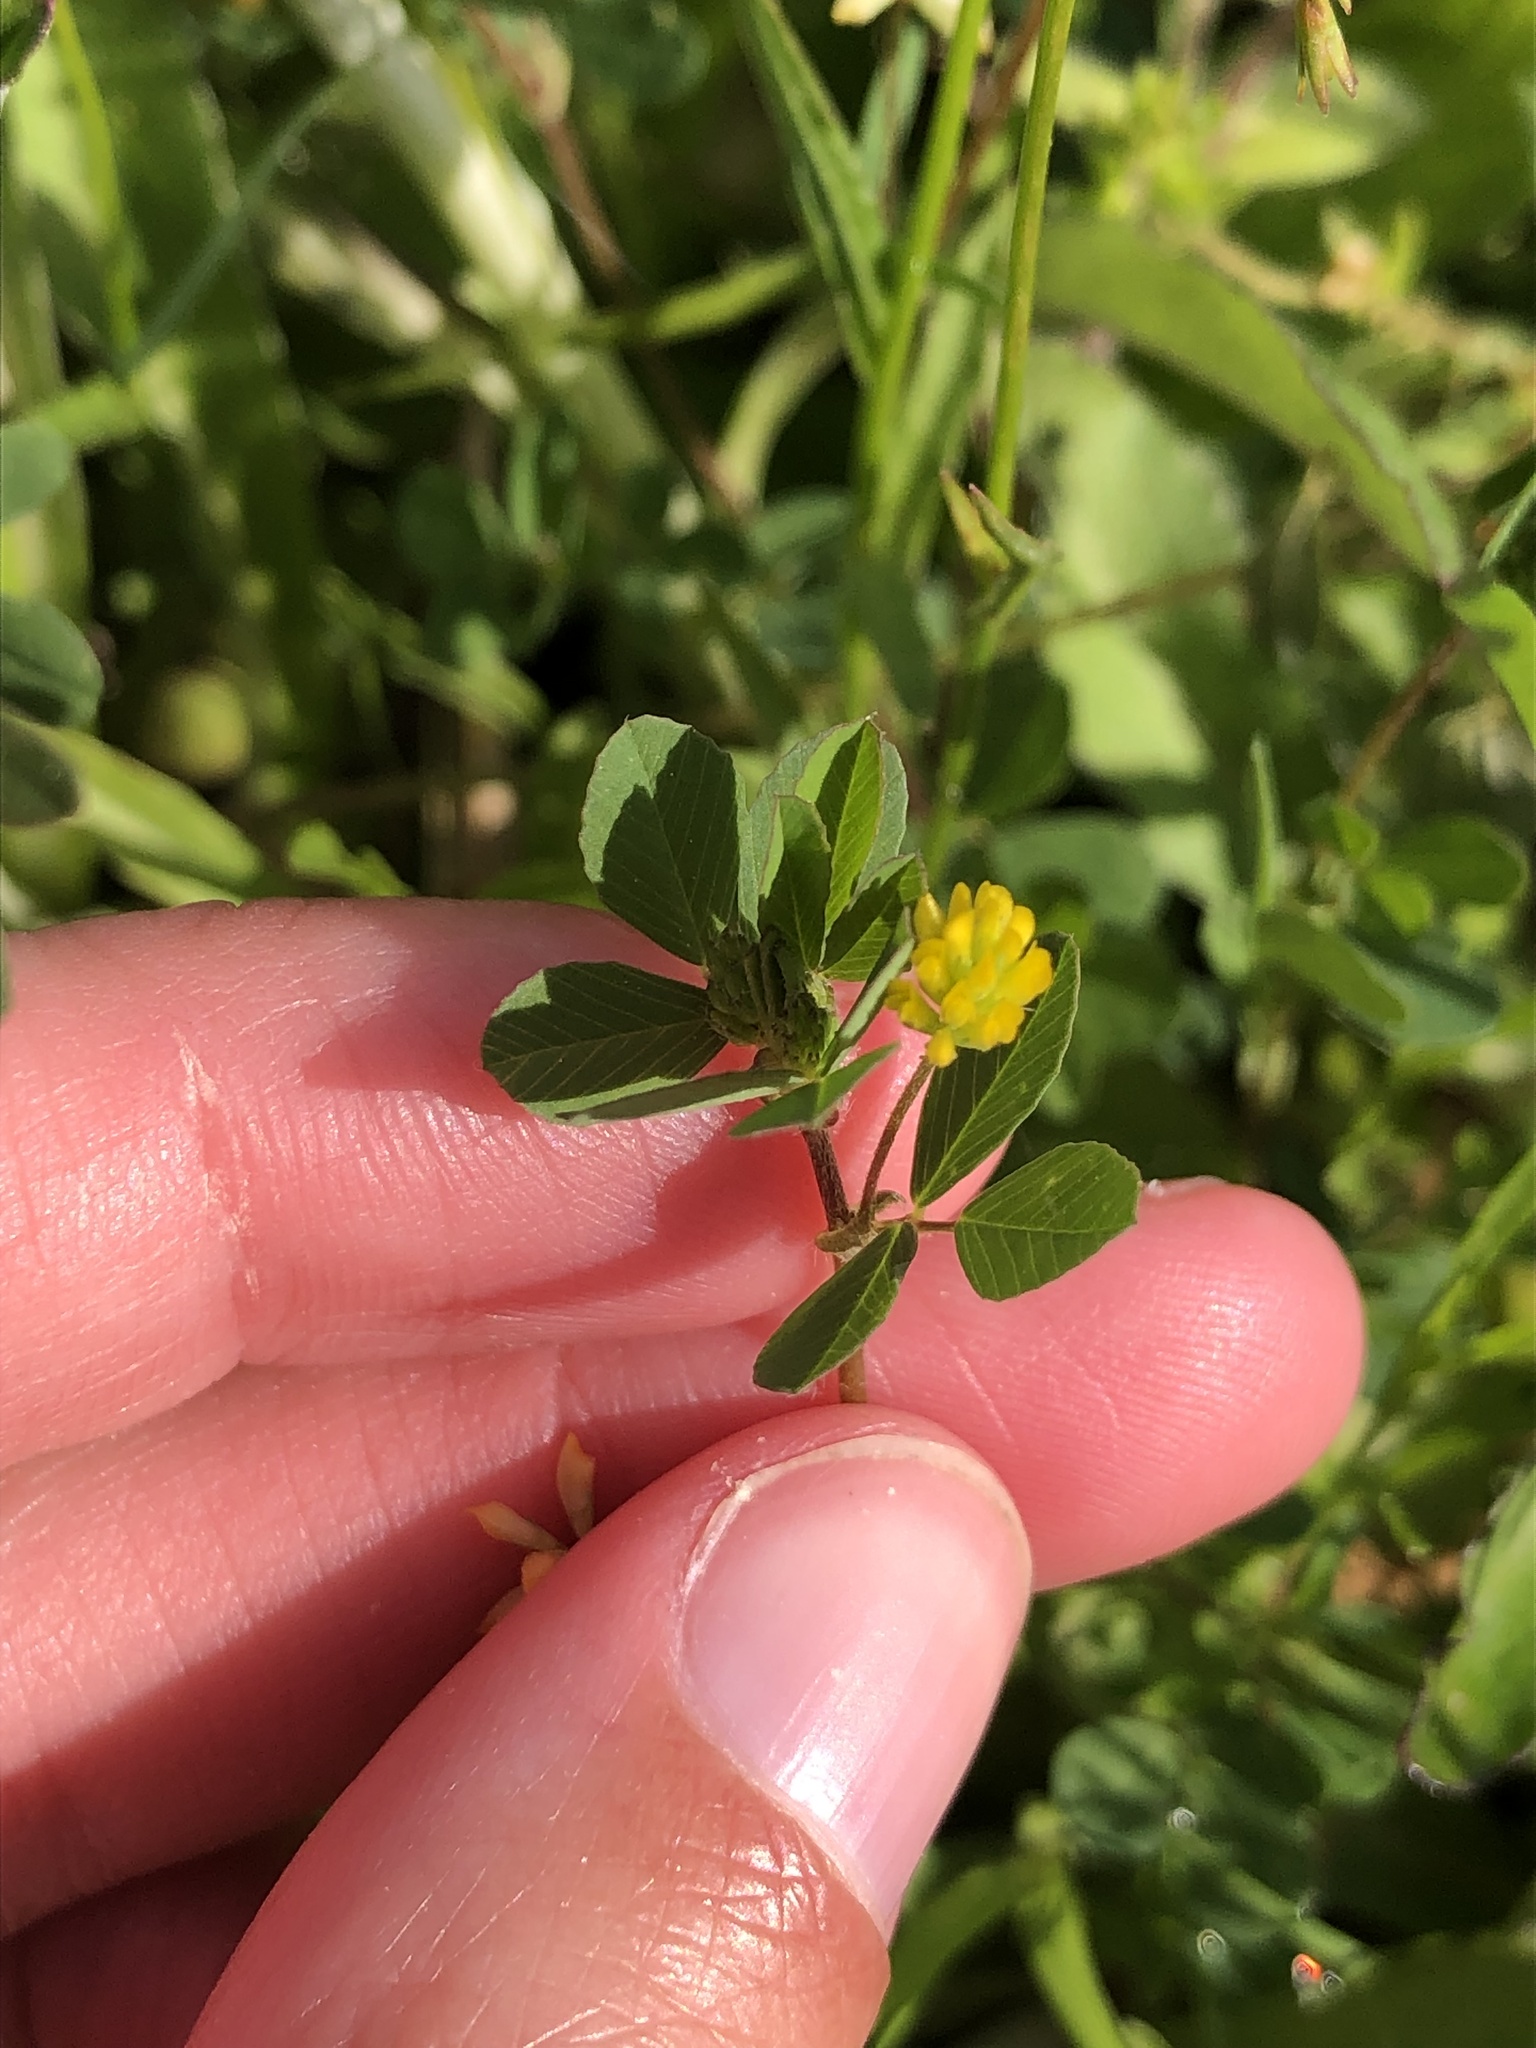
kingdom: Plantae
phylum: Tracheophyta
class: Magnoliopsida
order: Fabales
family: Fabaceae
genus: Trifolium
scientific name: Trifolium dubium
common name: Suckling clover
